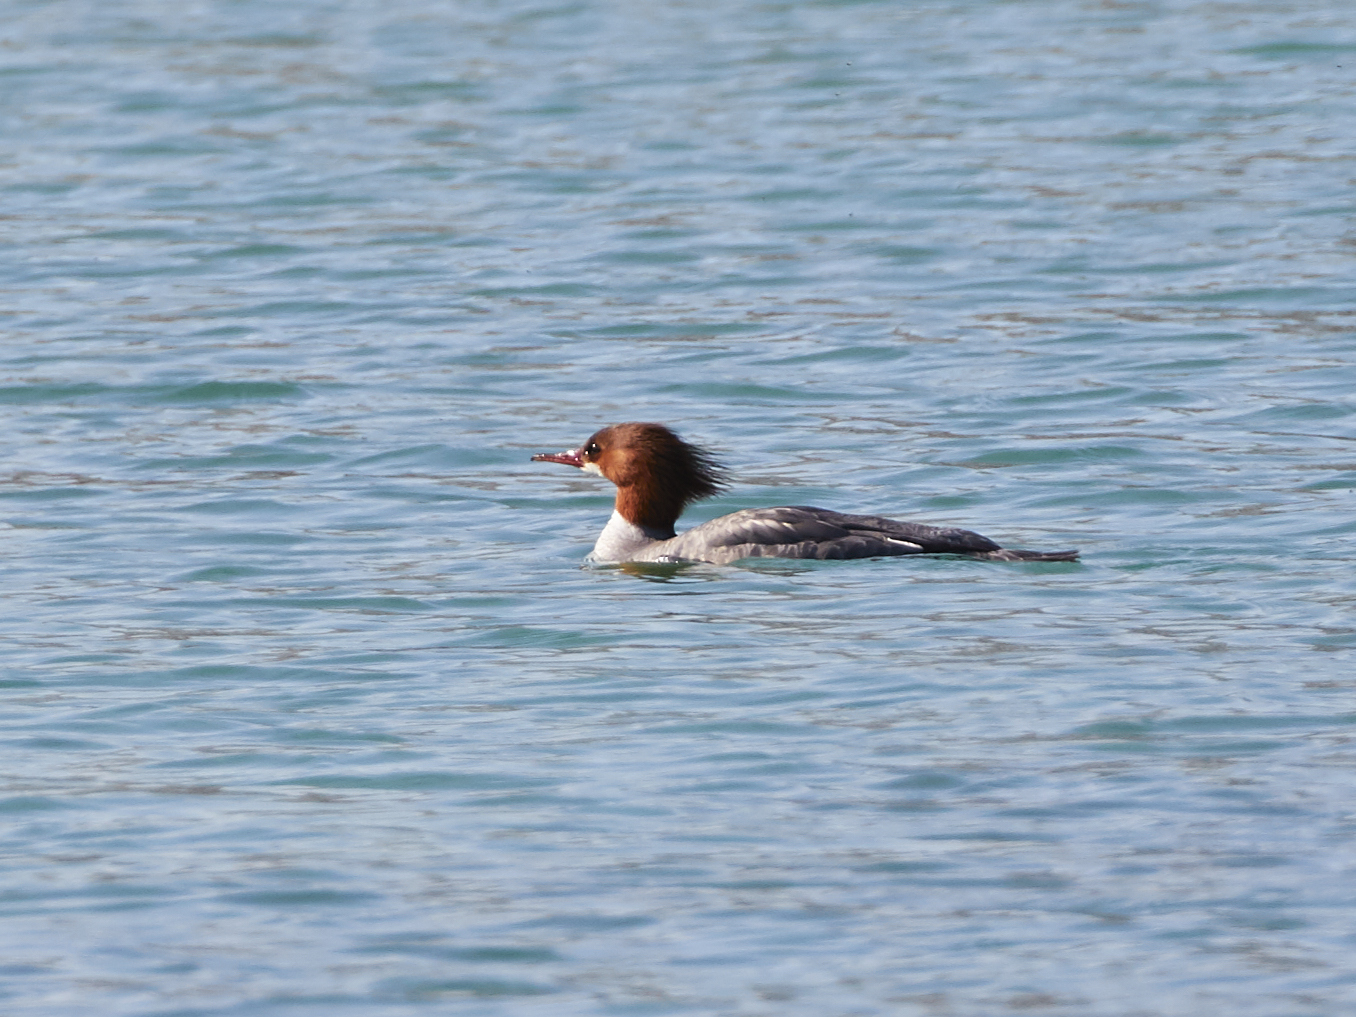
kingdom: Animalia
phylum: Chordata
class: Aves
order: Anseriformes
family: Anatidae
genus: Mergus
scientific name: Mergus merganser
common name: Common merganser
